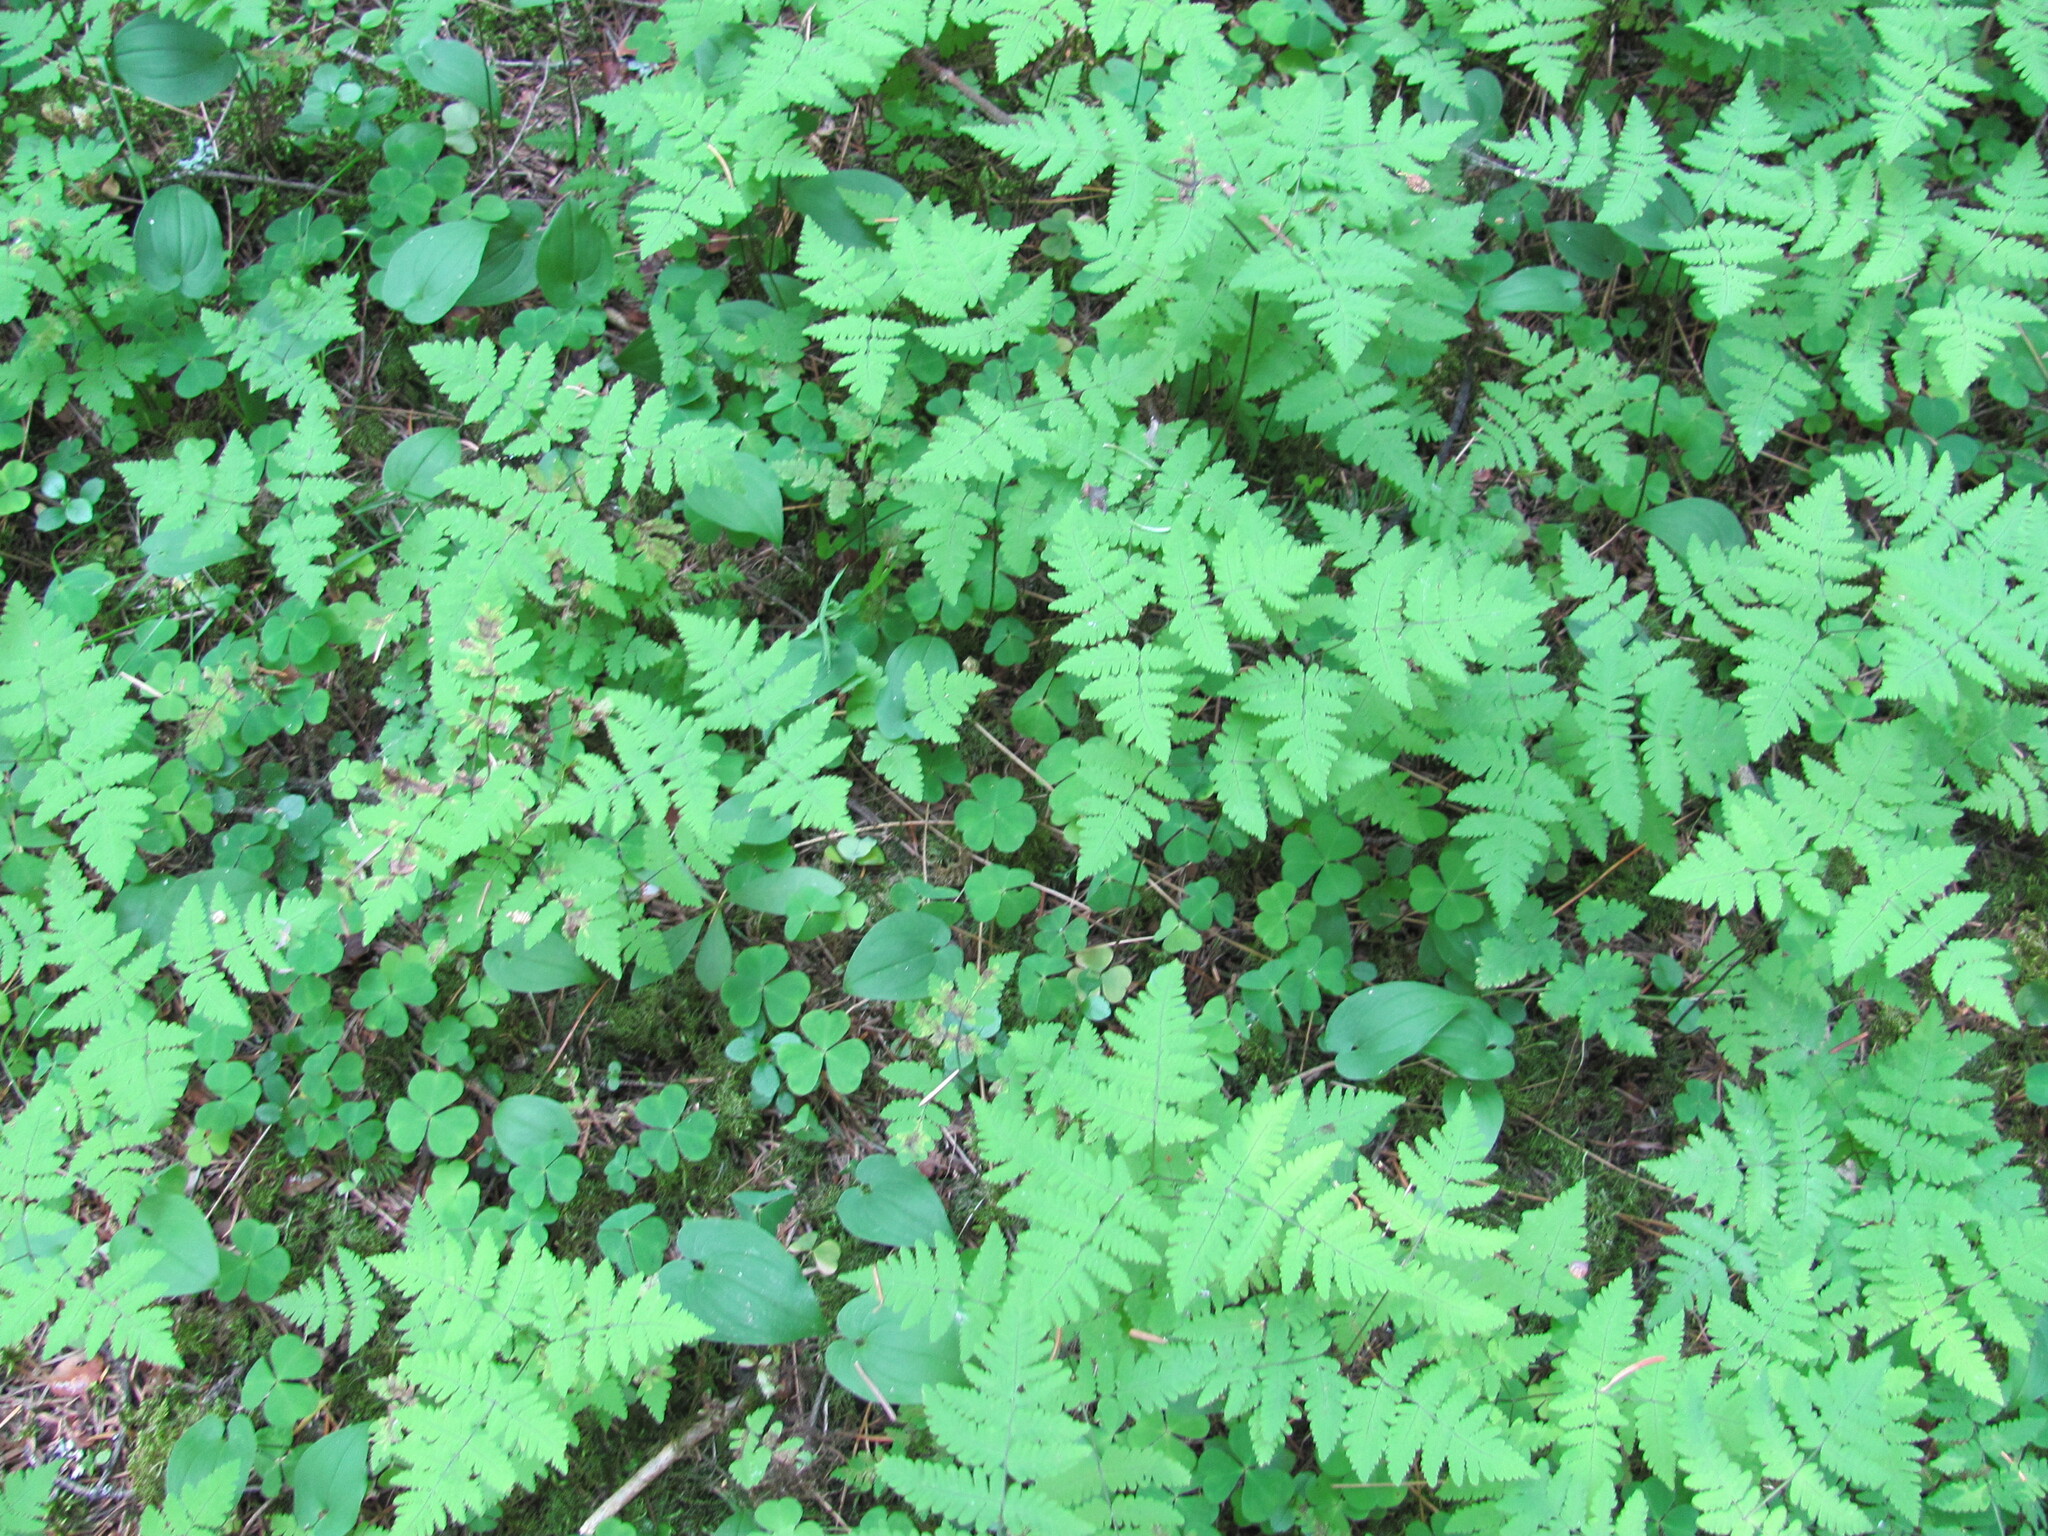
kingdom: Plantae
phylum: Tracheophyta
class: Polypodiopsida
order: Polypodiales
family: Cystopteridaceae
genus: Gymnocarpium
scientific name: Gymnocarpium dryopteris
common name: Oak fern
